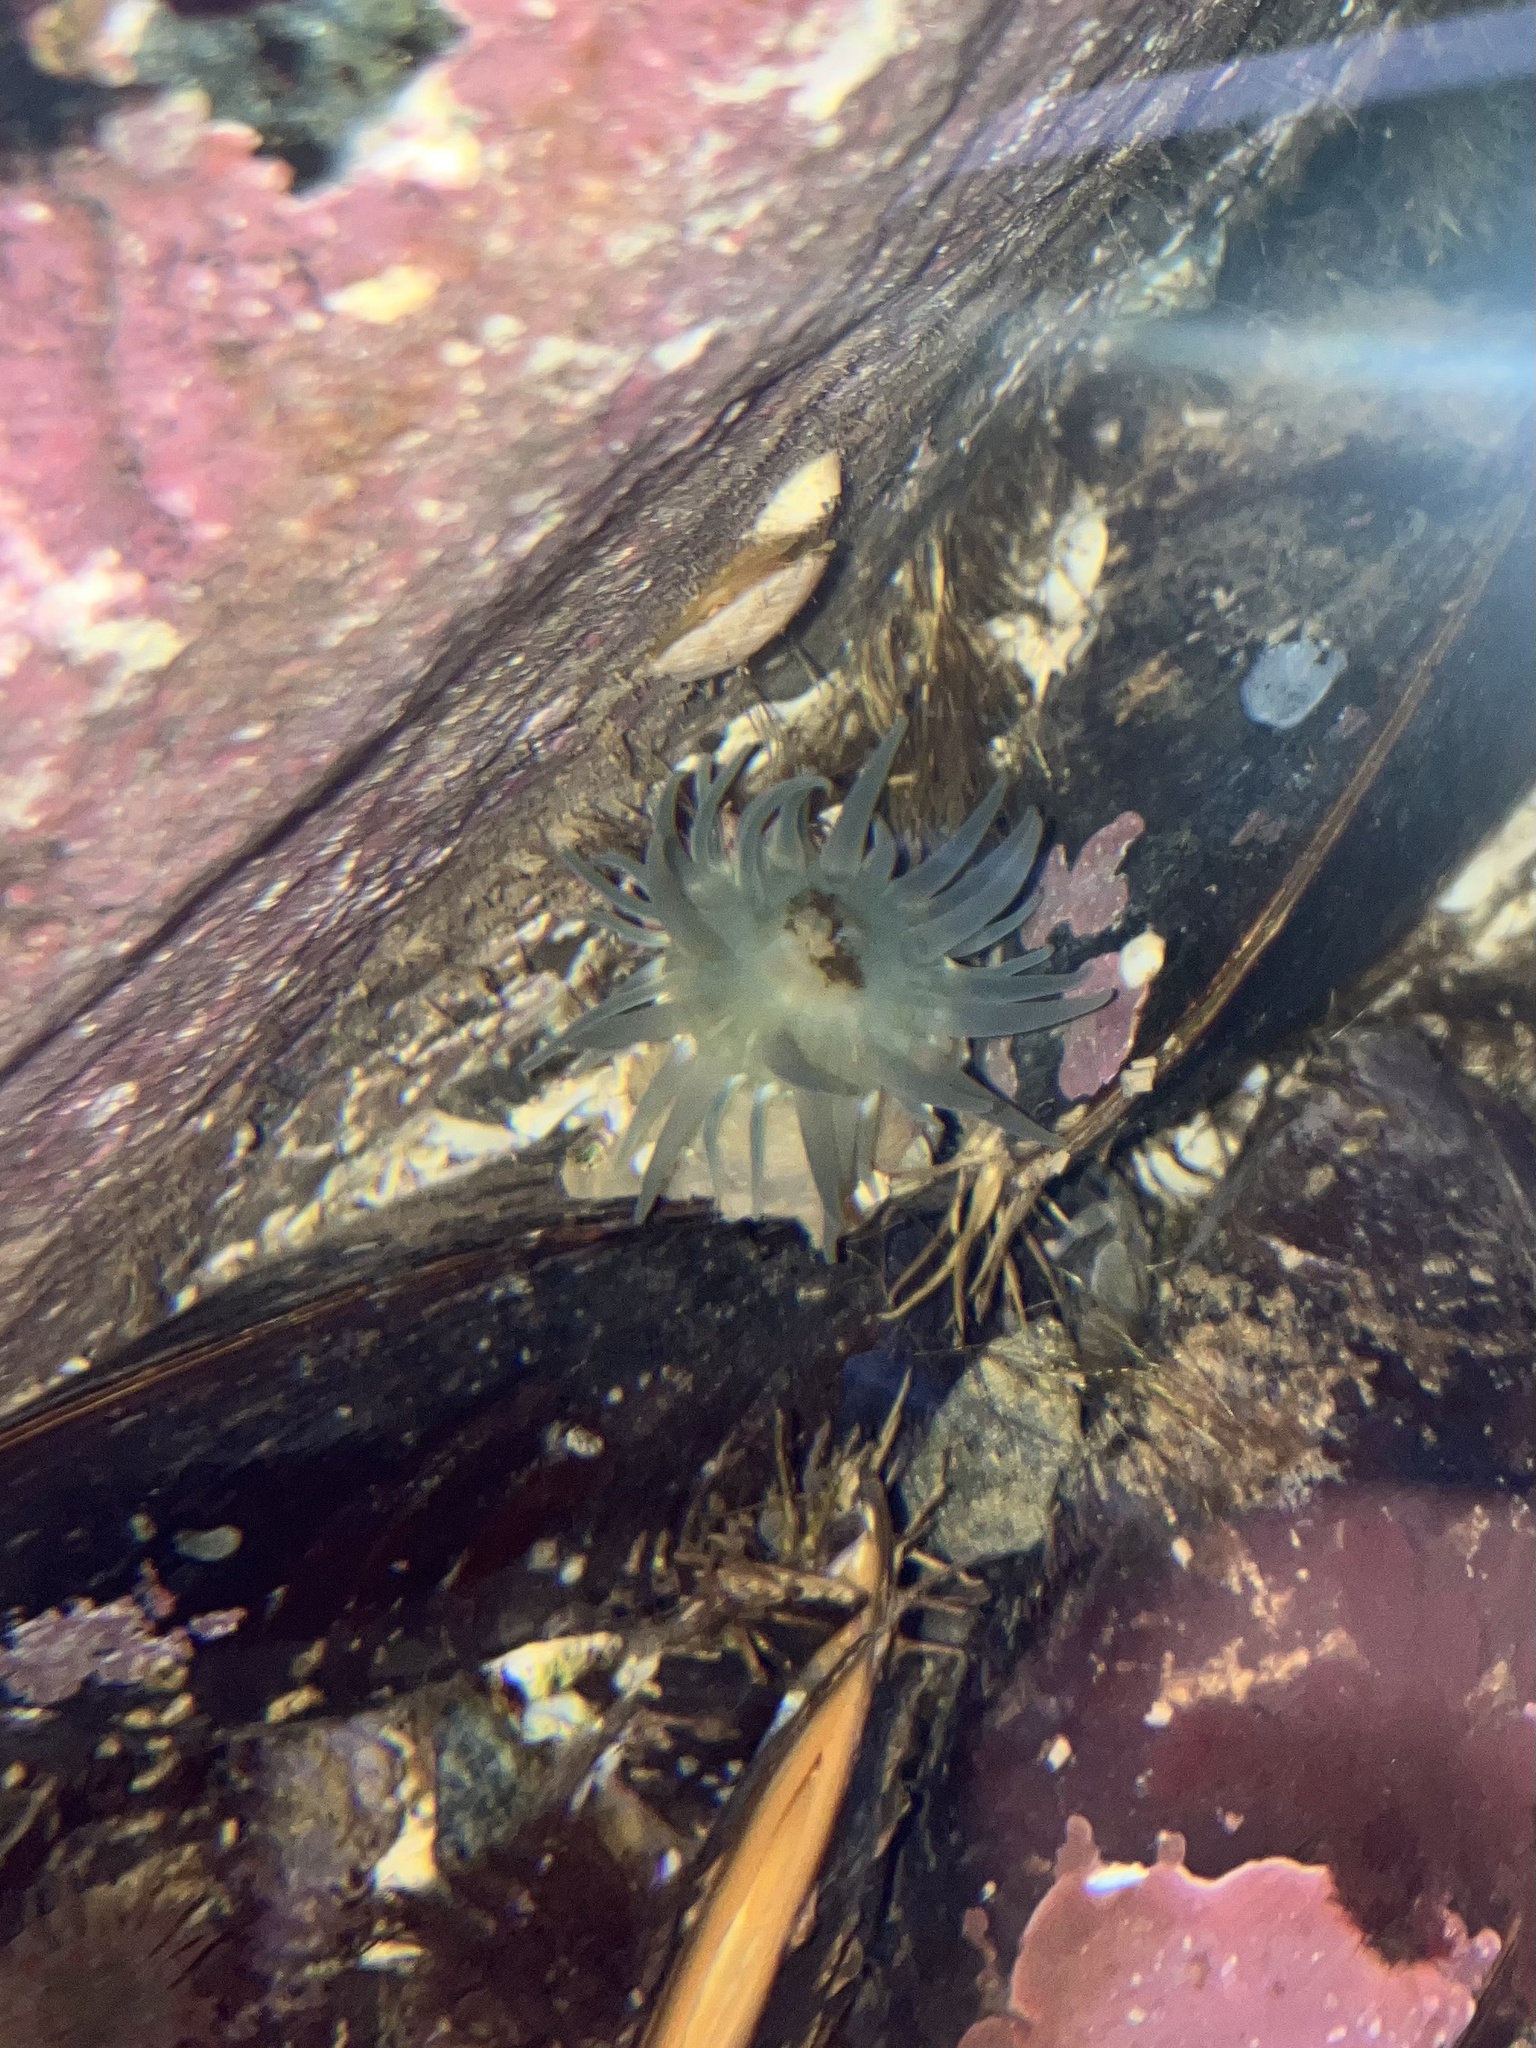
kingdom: Animalia
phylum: Cnidaria
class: Anthozoa
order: Actiniaria
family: Actiniidae
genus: Aulactinia
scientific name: Aulactinia stella
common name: Silver-spotted sea anemone
